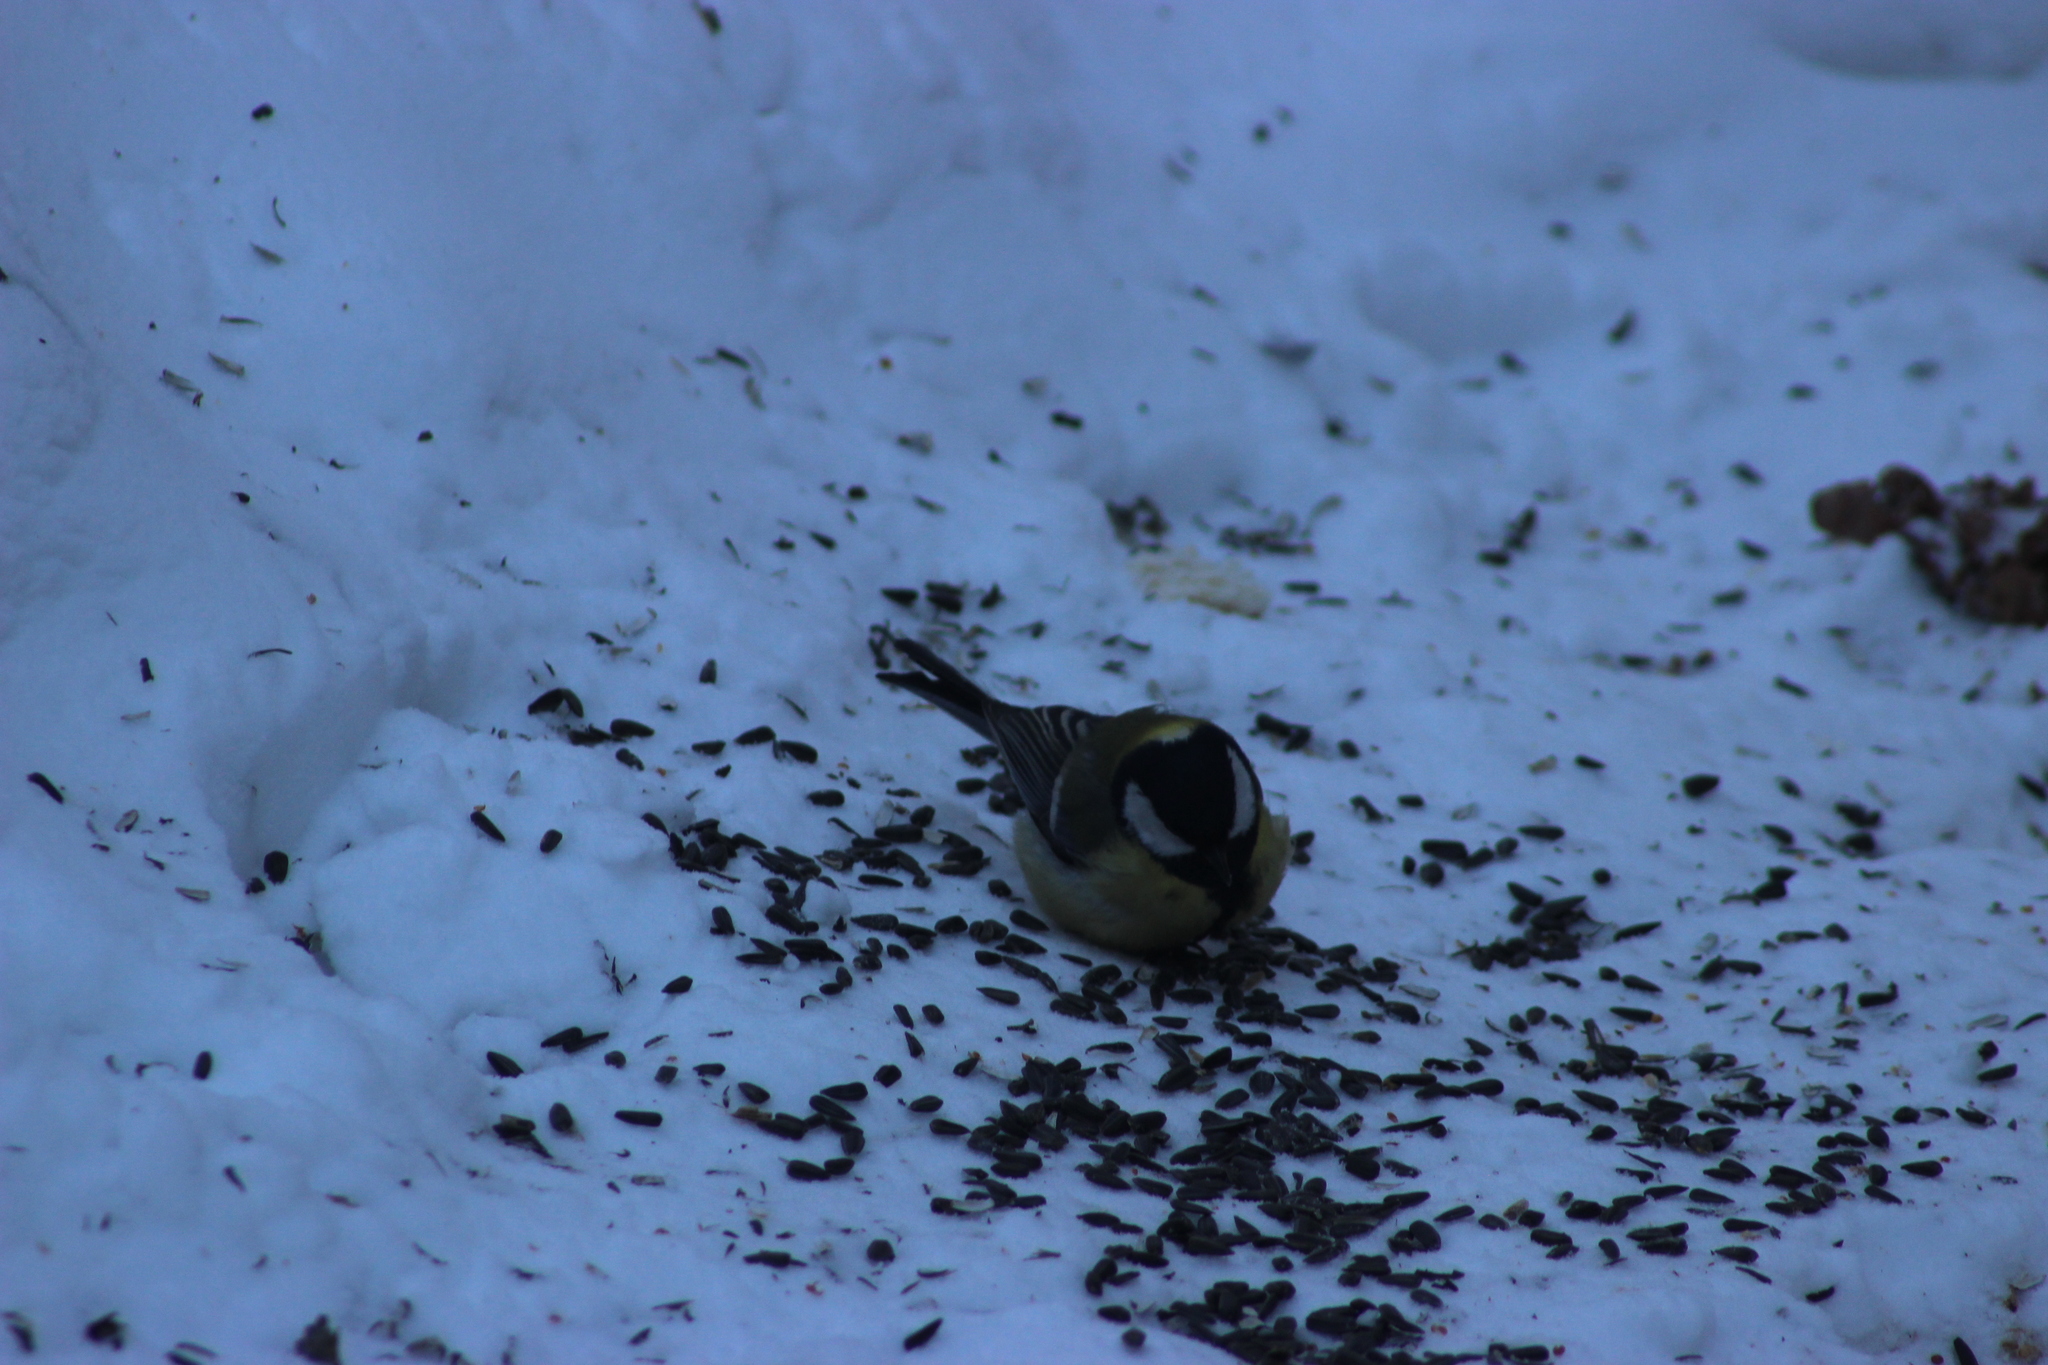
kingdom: Animalia
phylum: Chordata
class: Aves
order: Passeriformes
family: Paridae
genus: Parus
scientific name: Parus major
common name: Great tit
